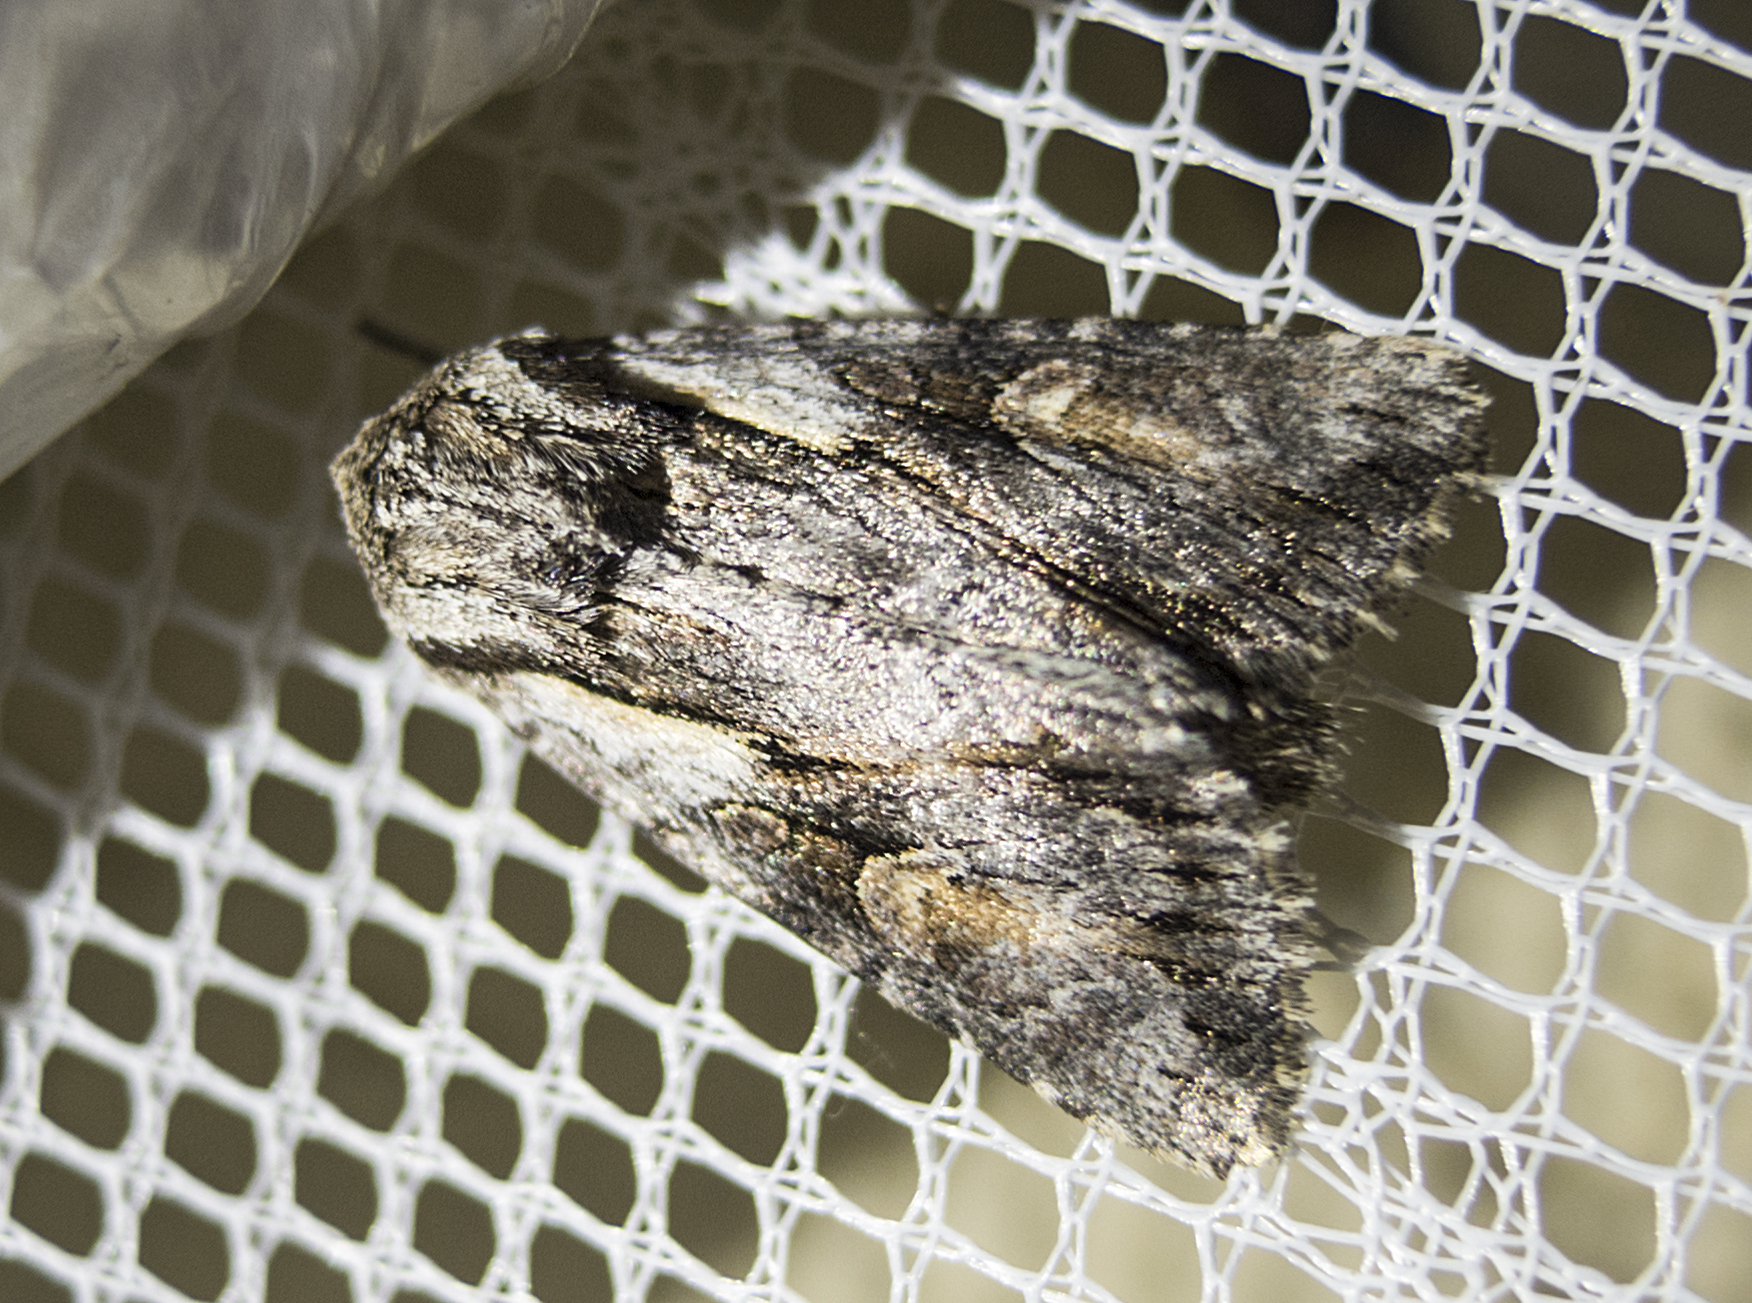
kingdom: Animalia
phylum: Arthropoda
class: Insecta
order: Lepidoptera
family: Noctuidae
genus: Chloantha
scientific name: Chloantha hyperici
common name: Pale-shouldered cloud
